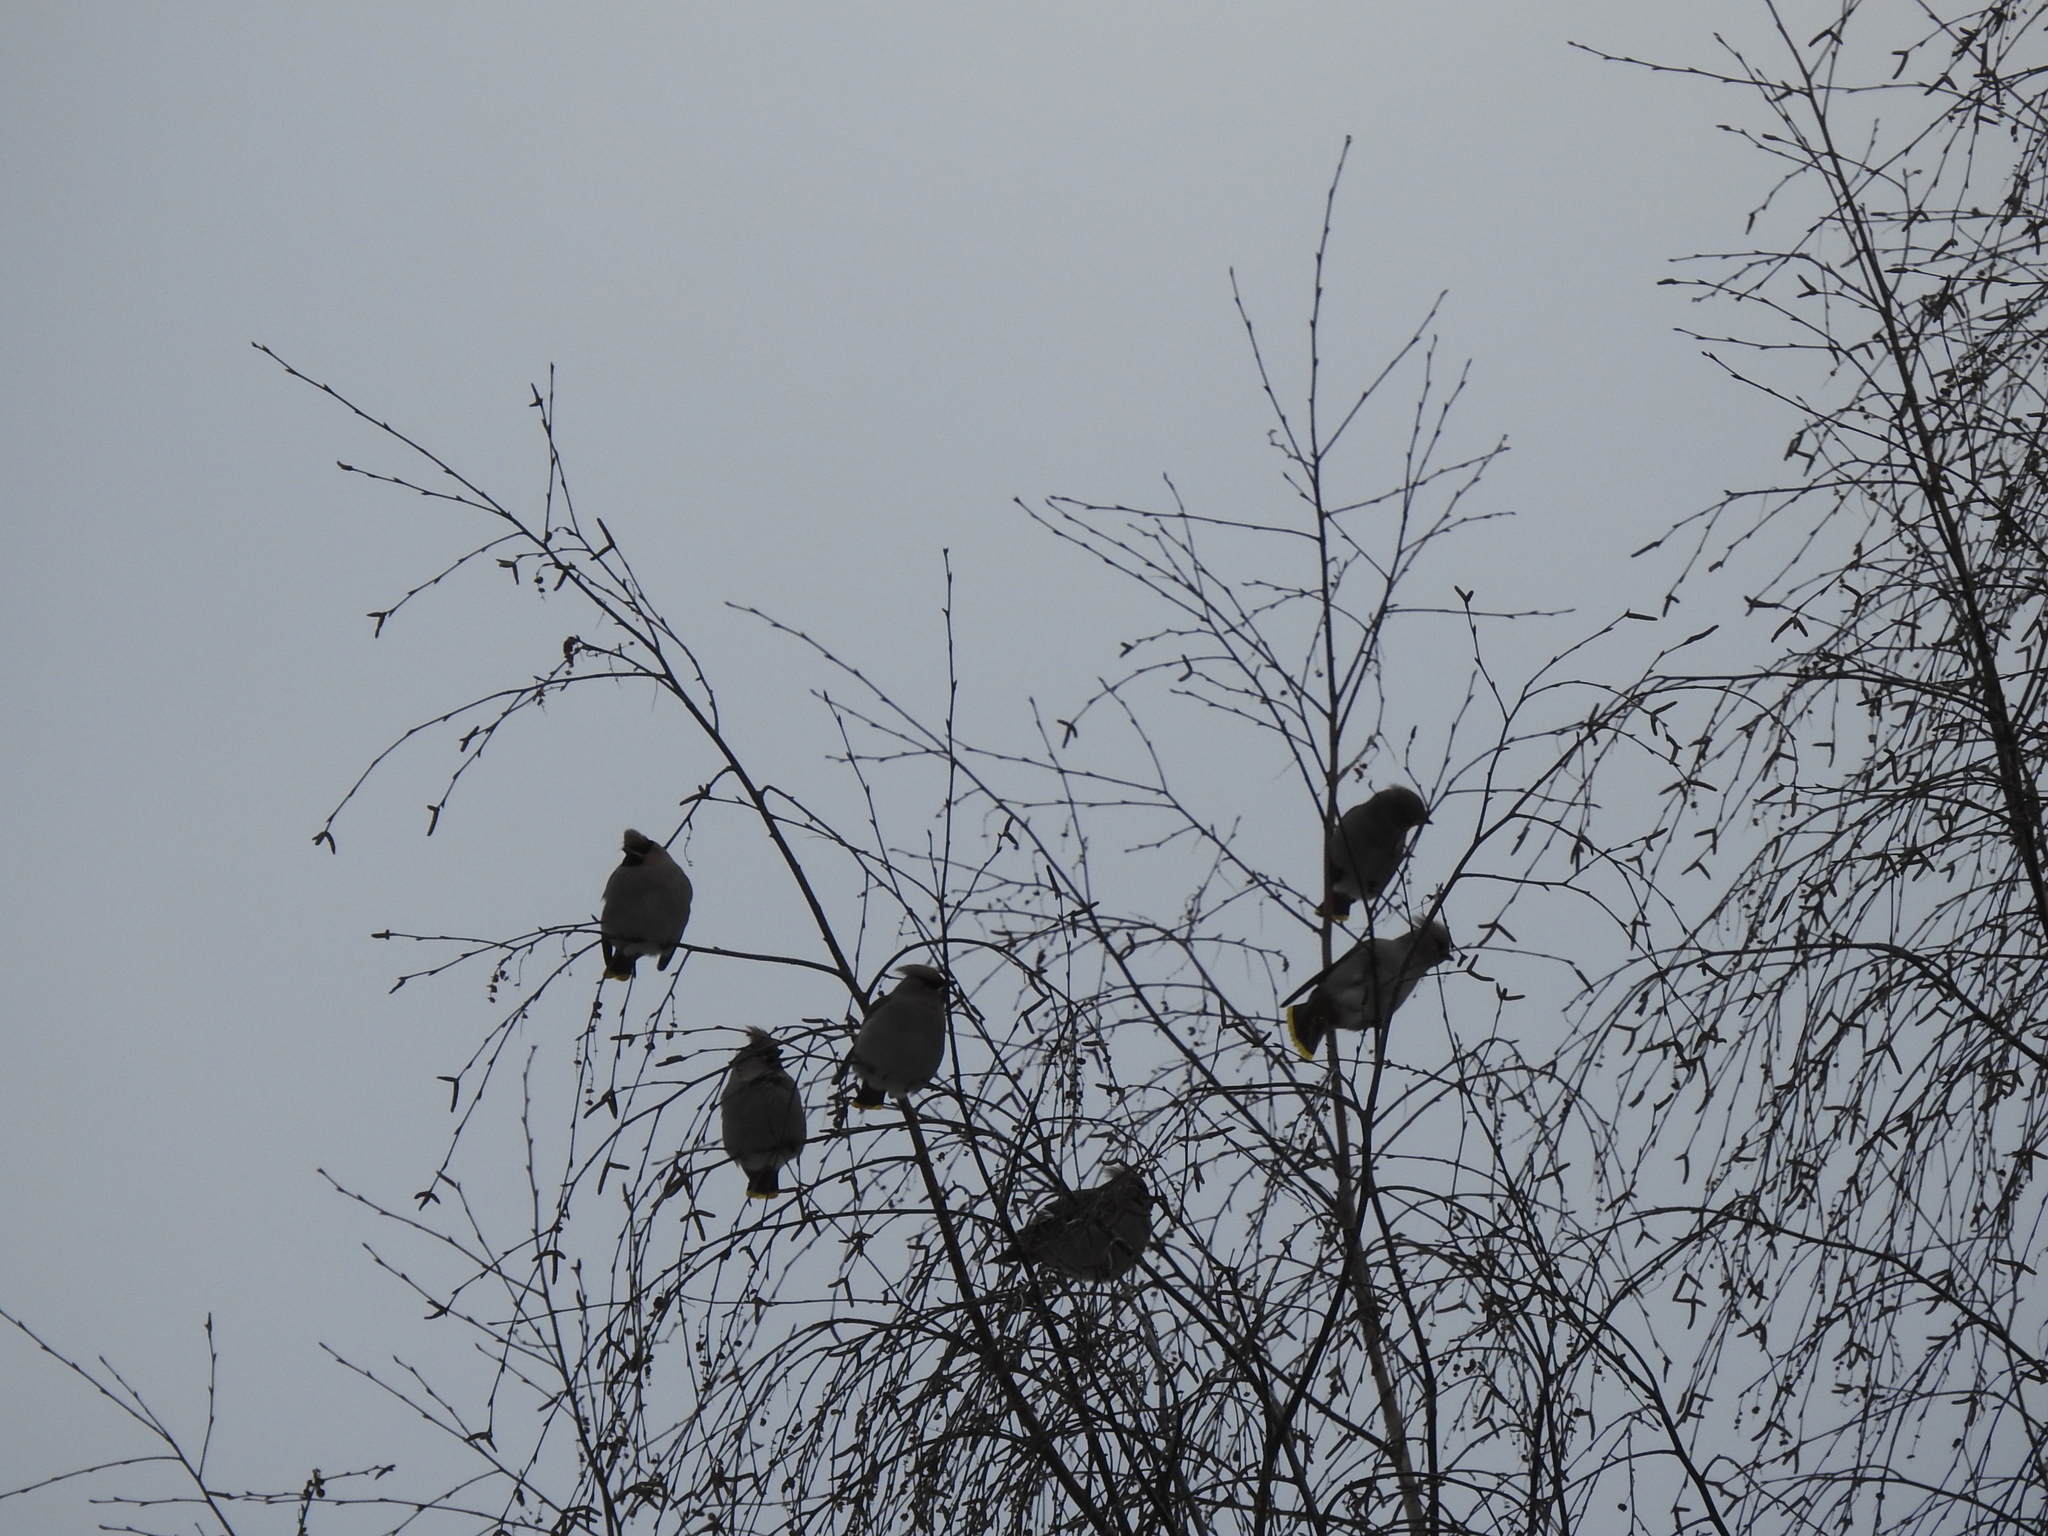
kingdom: Animalia
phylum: Chordata
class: Aves
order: Passeriformes
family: Bombycillidae
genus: Bombycilla
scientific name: Bombycilla garrulus
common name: Bohemian waxwing
